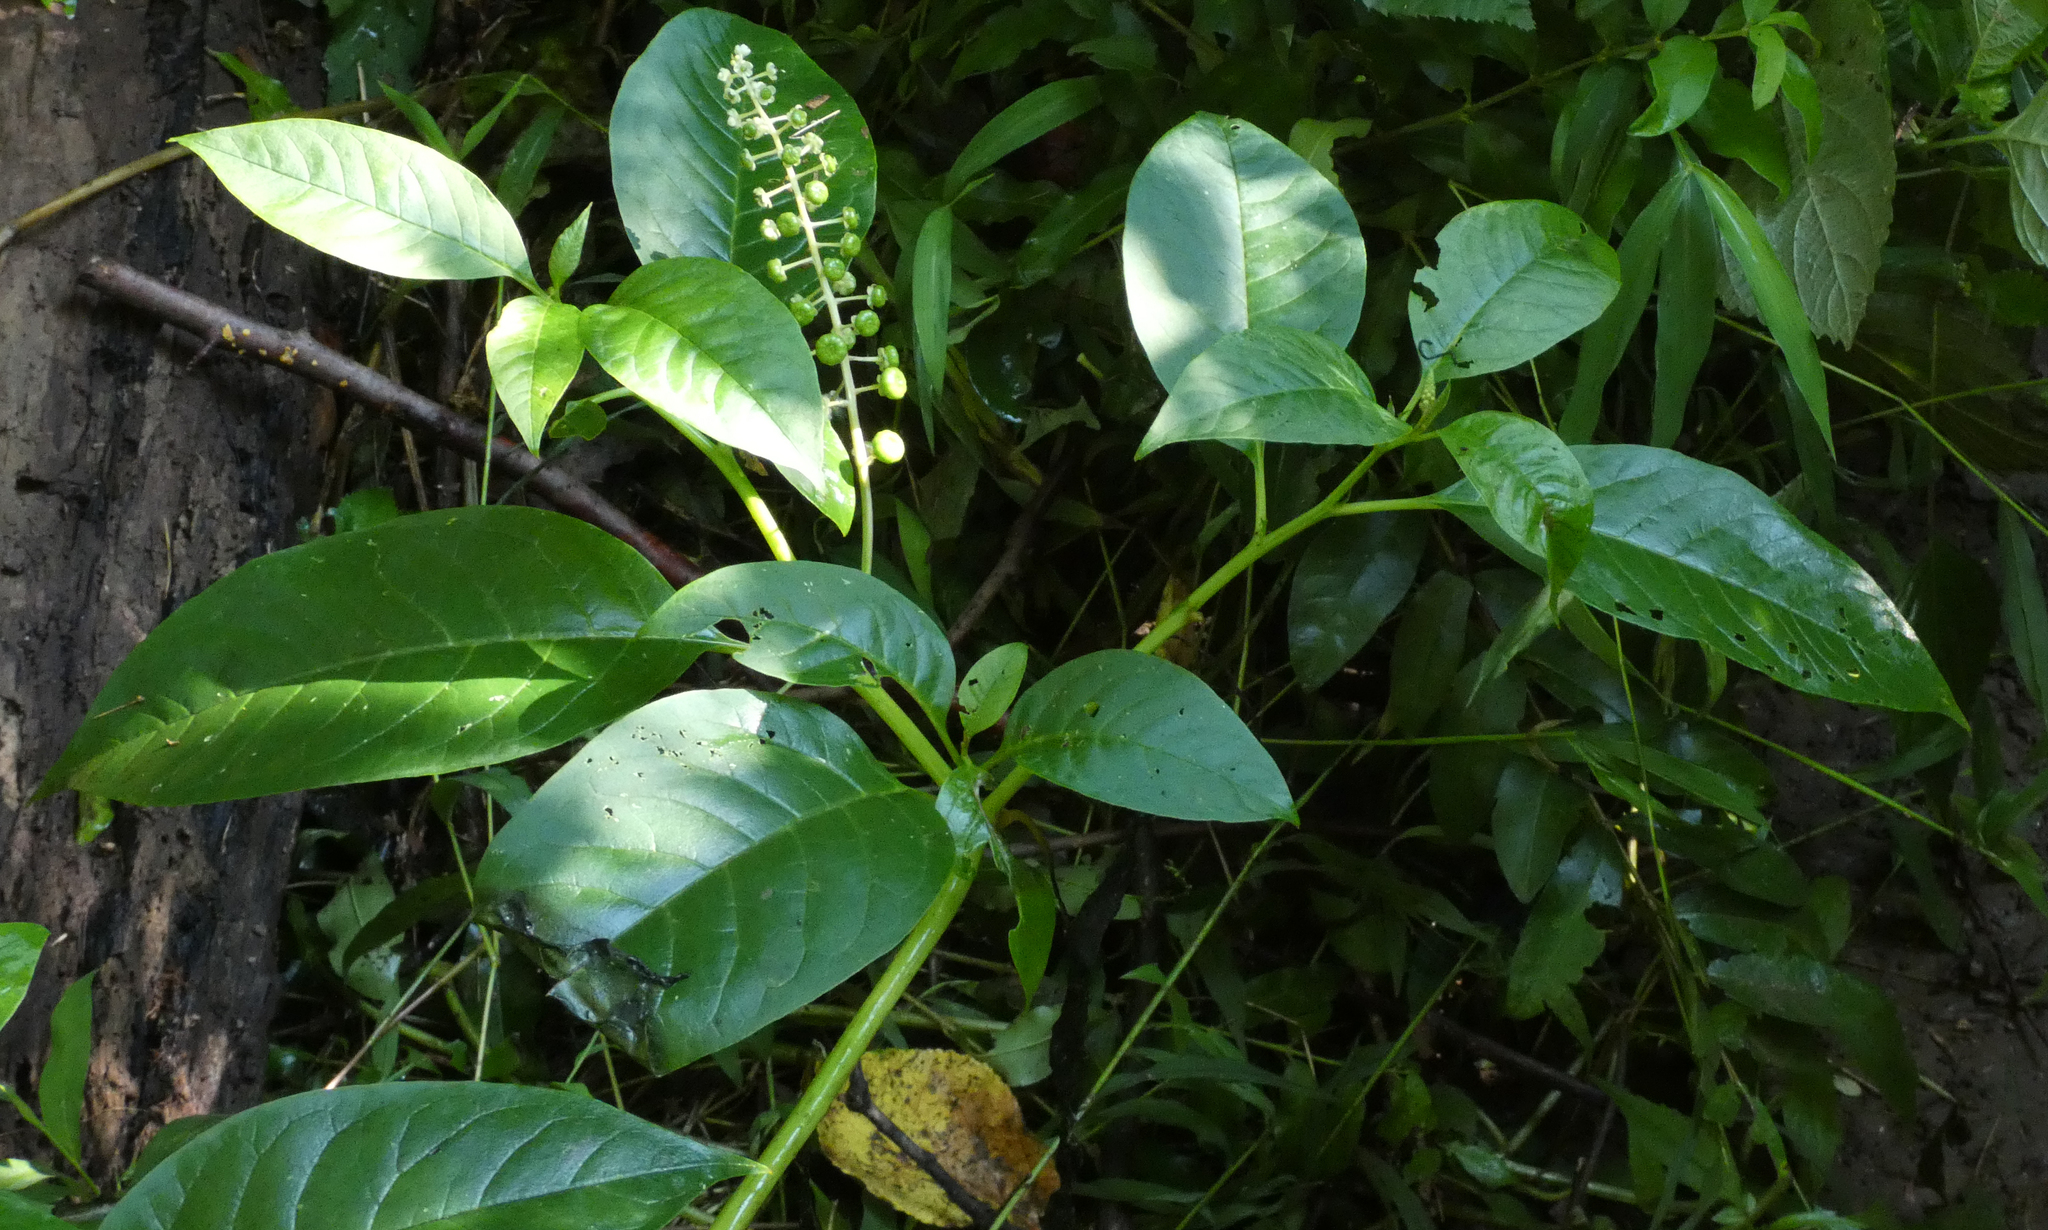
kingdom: Plantae
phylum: Tracheophyta
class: Magnoliopsida
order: Caryophyllales
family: Phytolaccaceae
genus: Phytolacca
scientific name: Phytolacca americana
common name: American pokeweed
